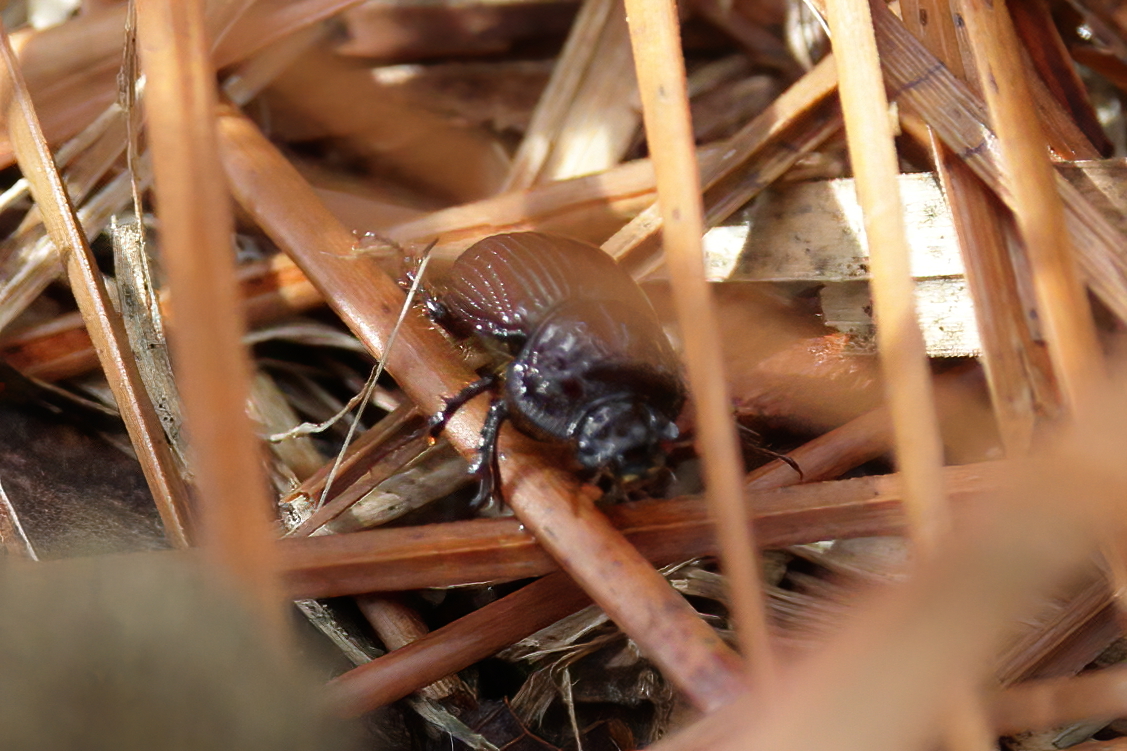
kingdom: Animalia
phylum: Arthropoda
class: Insecta
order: Coleoptera
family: Geotrupidae
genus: Bolbelasmus
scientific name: Bolbelasmus lazarus
